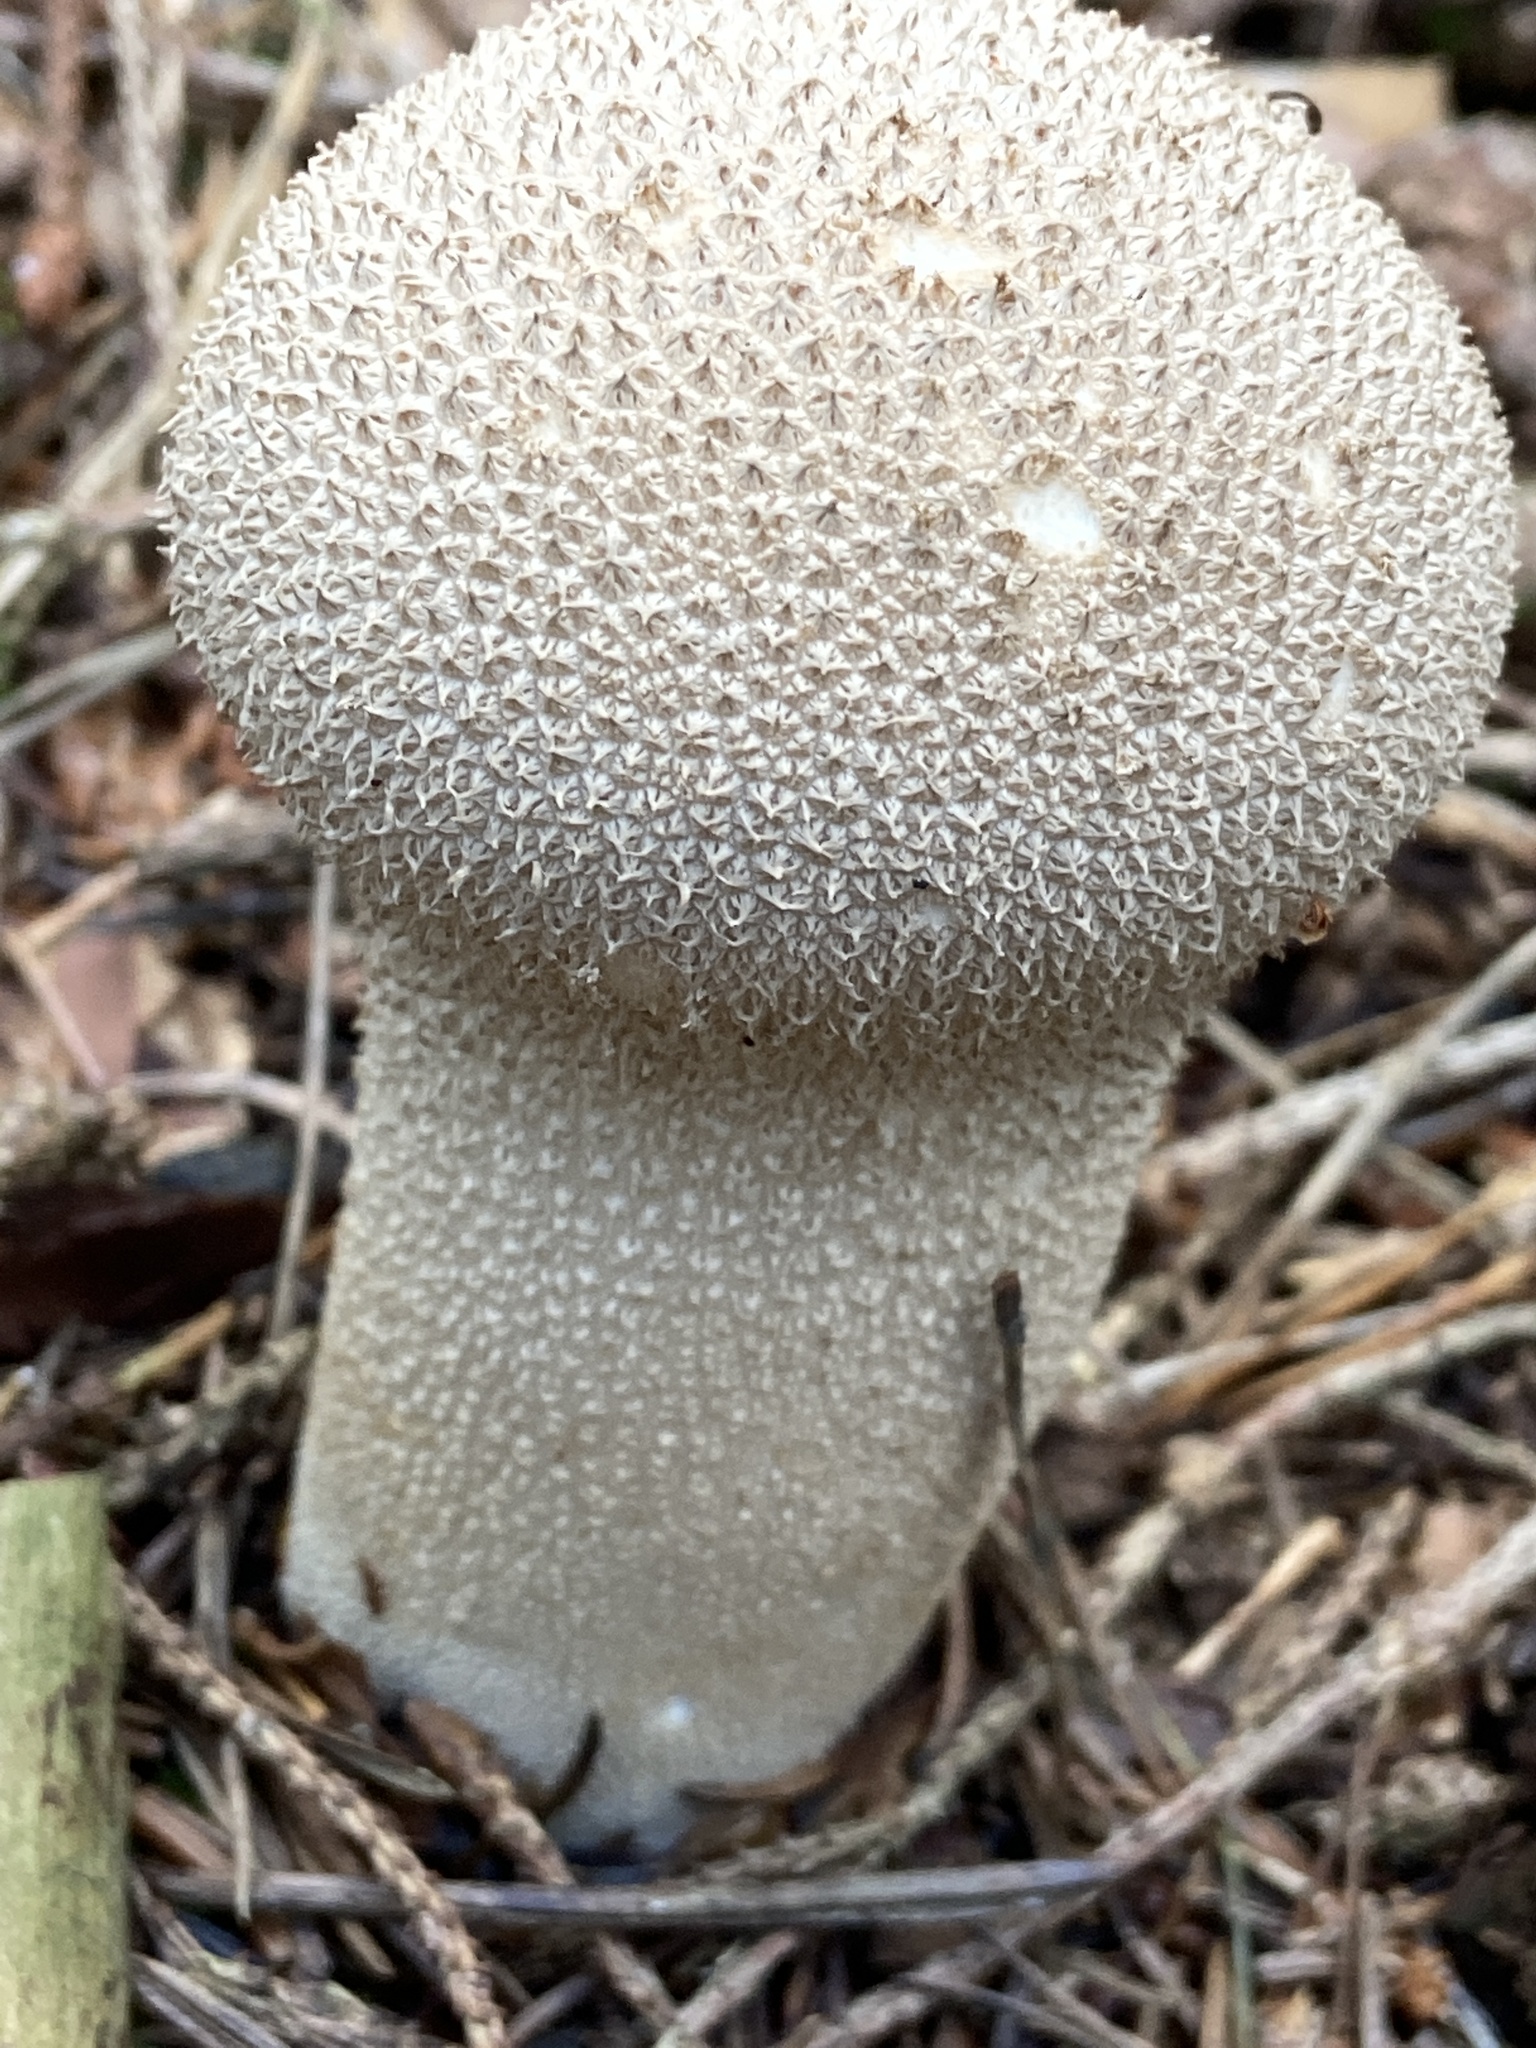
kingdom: Fungi
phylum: Basidiomycota
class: Agaricomycetes
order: Agaricales
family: Lycoperdaceae
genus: Lycoperdon
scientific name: Lycoperdon excipuliforme
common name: Pestle puffball
